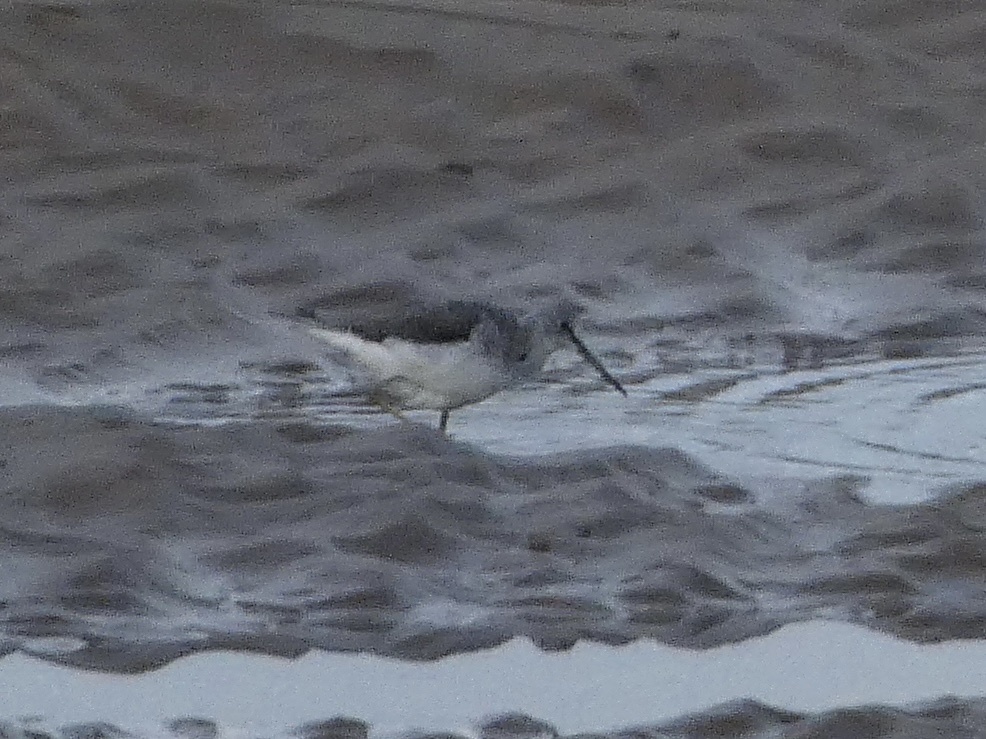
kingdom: Animalia
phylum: Chordata
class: Aves
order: Charadriiformes
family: Scolopacidae
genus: Tringa
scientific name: Tringa nebularia
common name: Common greenshank
